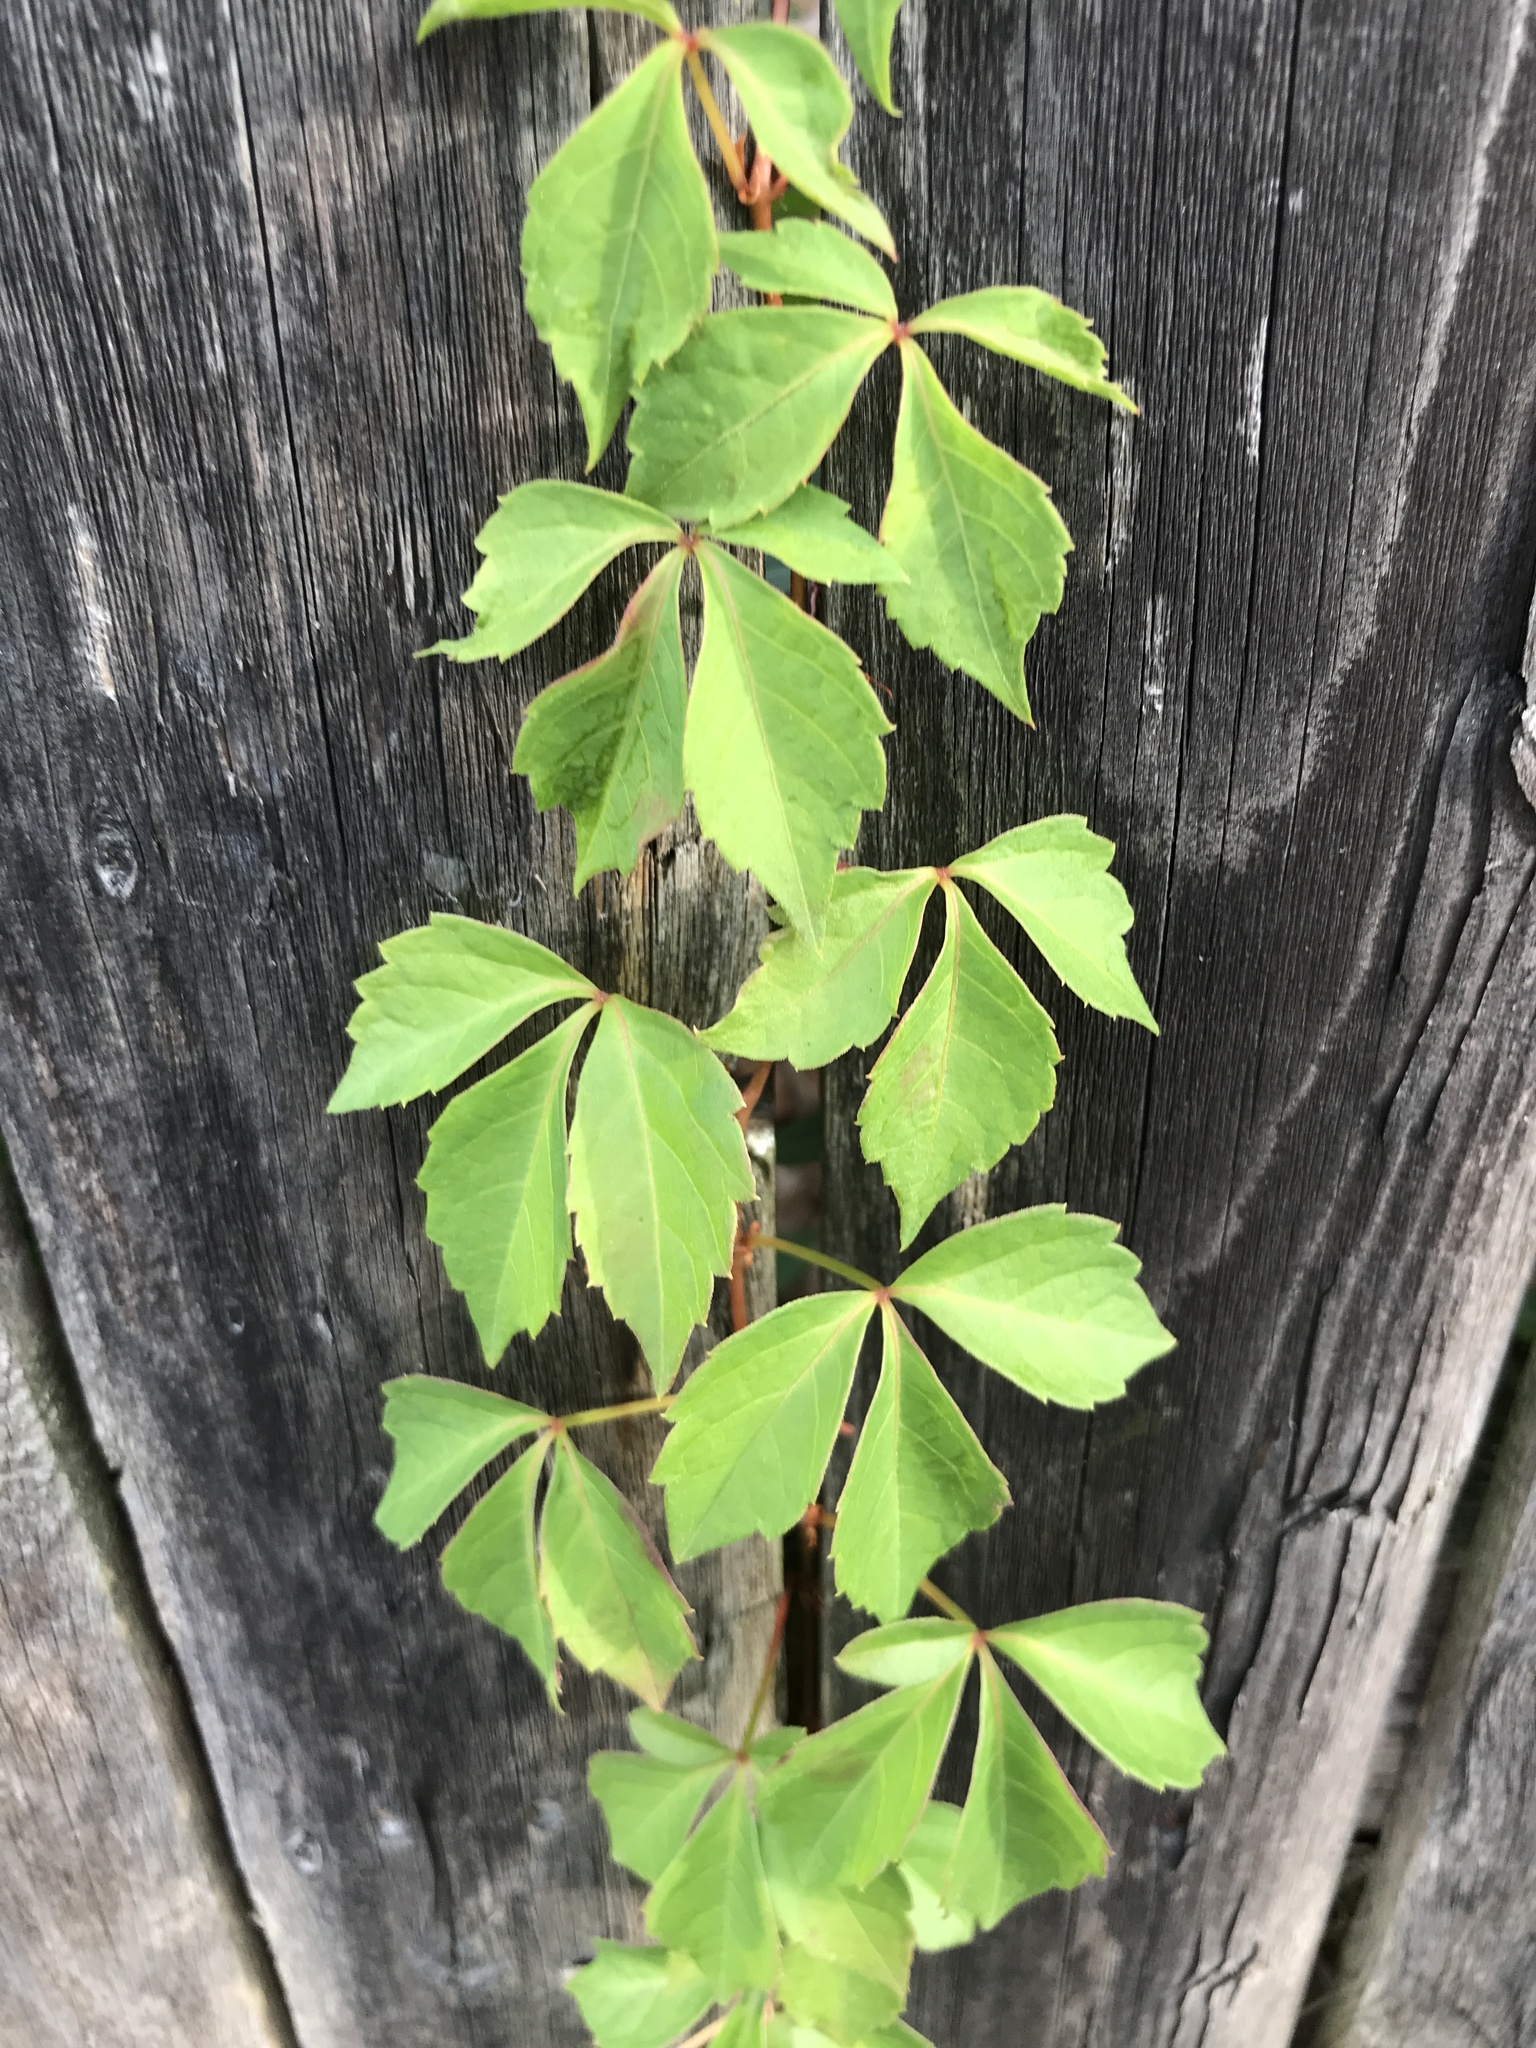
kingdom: Plantae
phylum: Tracheophyta
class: Magnoliopsida
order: Vitales
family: Vitaceae
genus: Parthenocissus
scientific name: Parthenocissus quinquefolia
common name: Virginia-creeper
